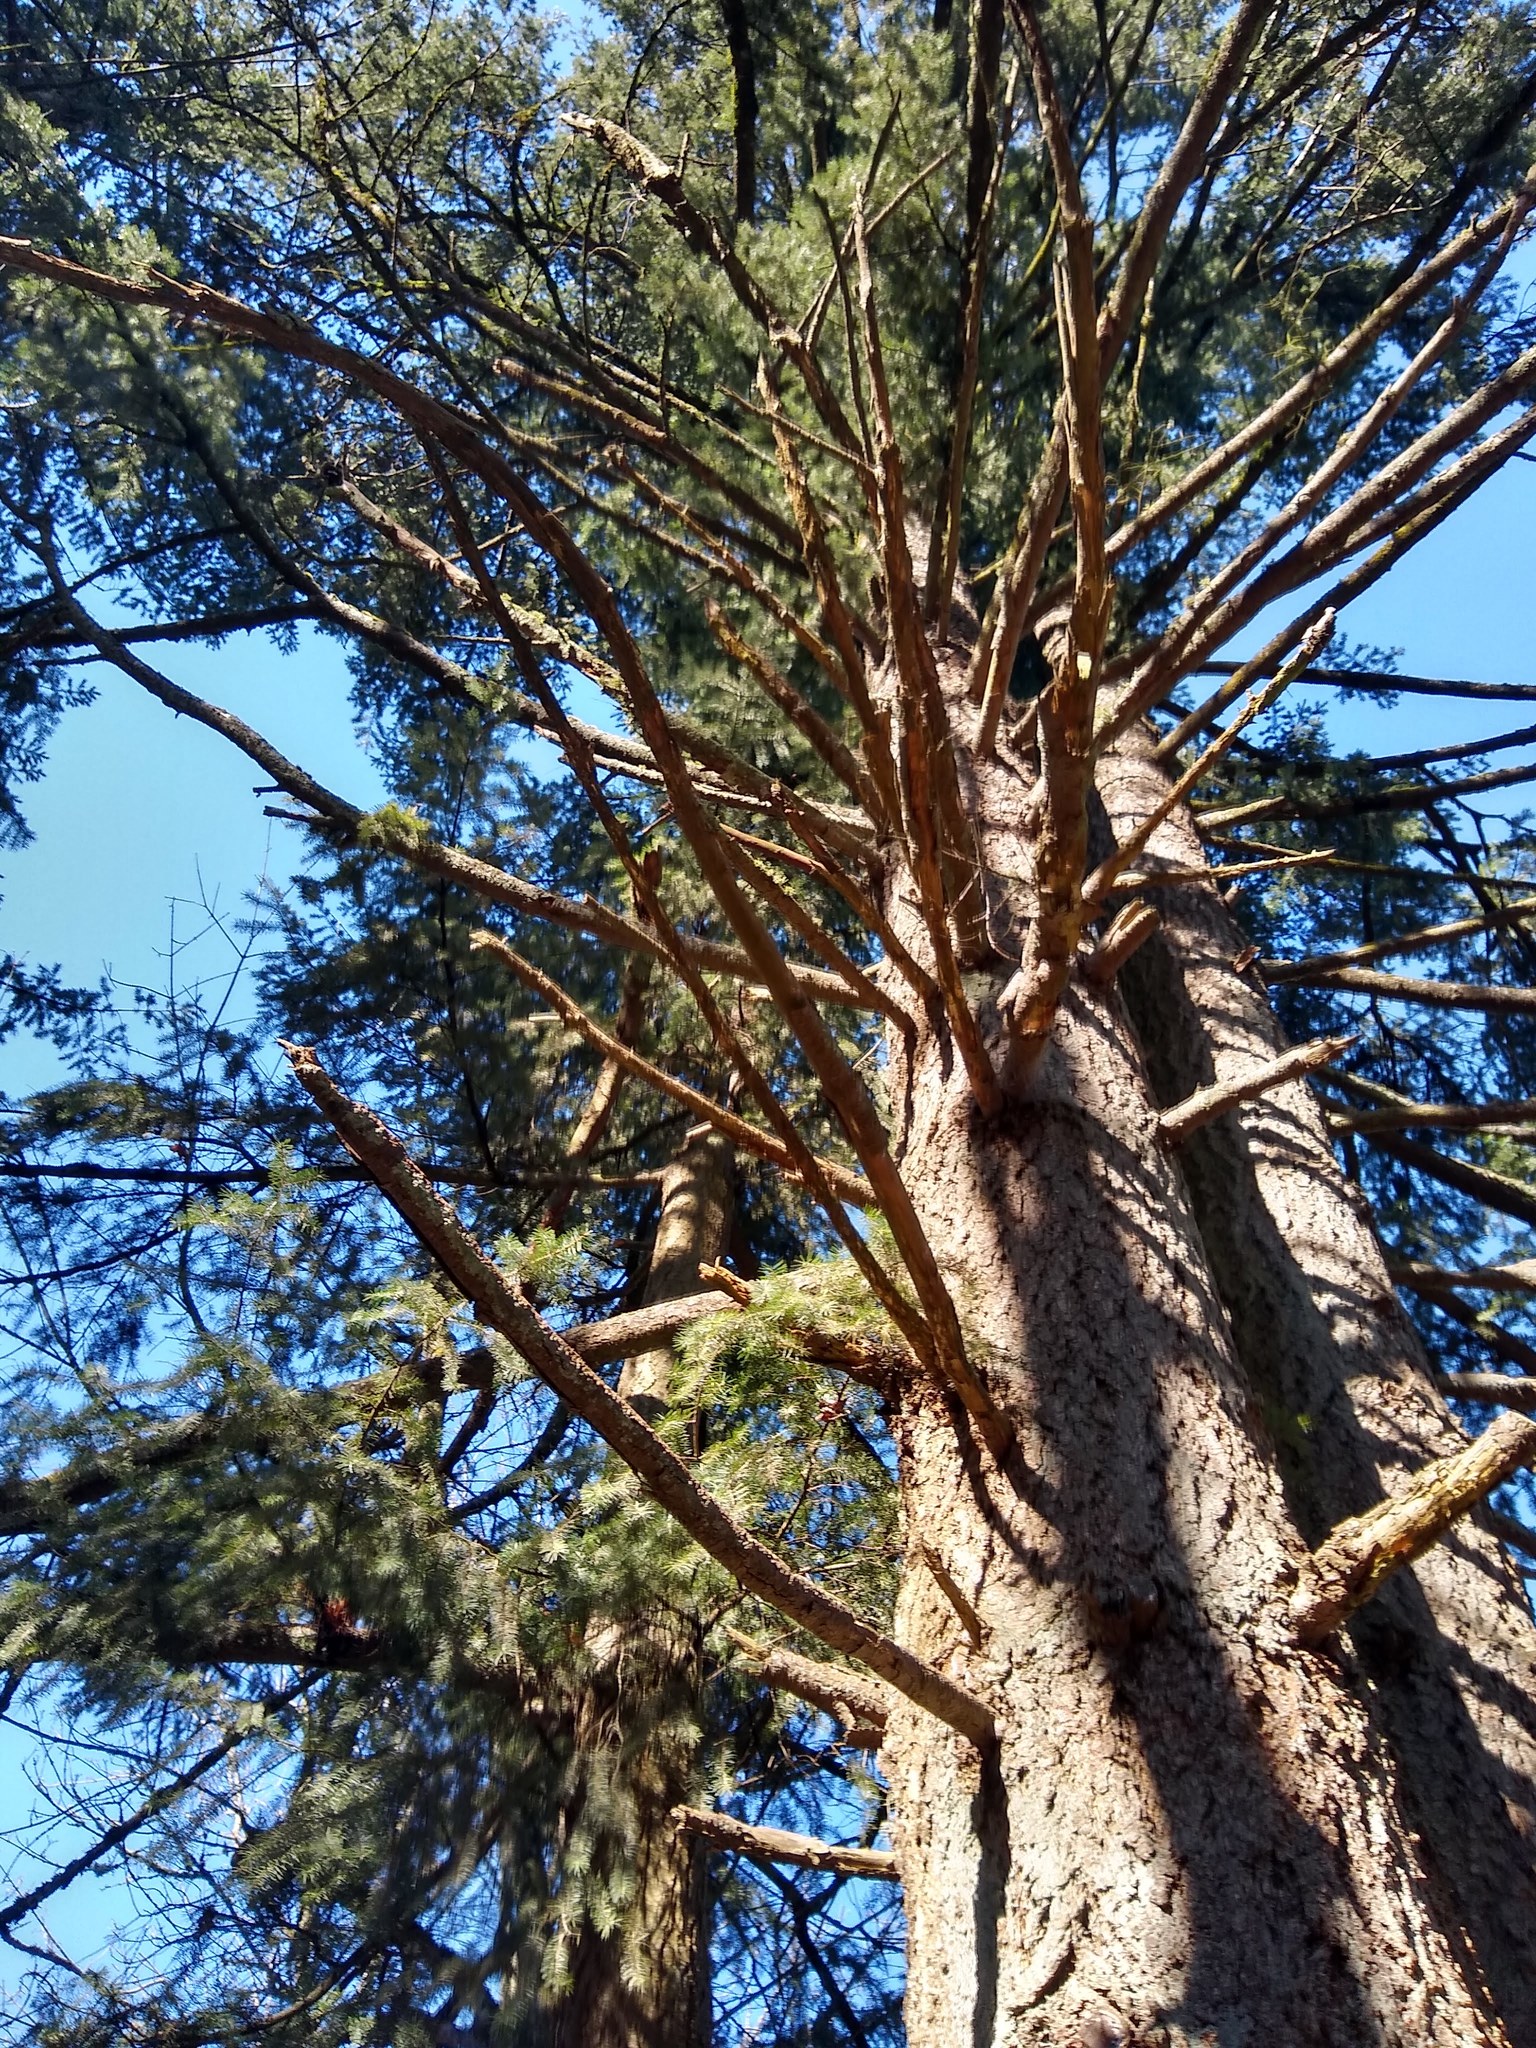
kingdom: Plantae
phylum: Tracheophyta
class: Pinopsida
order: Pinales
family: Pinaceae
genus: Pseudotsuga
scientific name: Pseudotsuga menziesii
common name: Douglas fir
